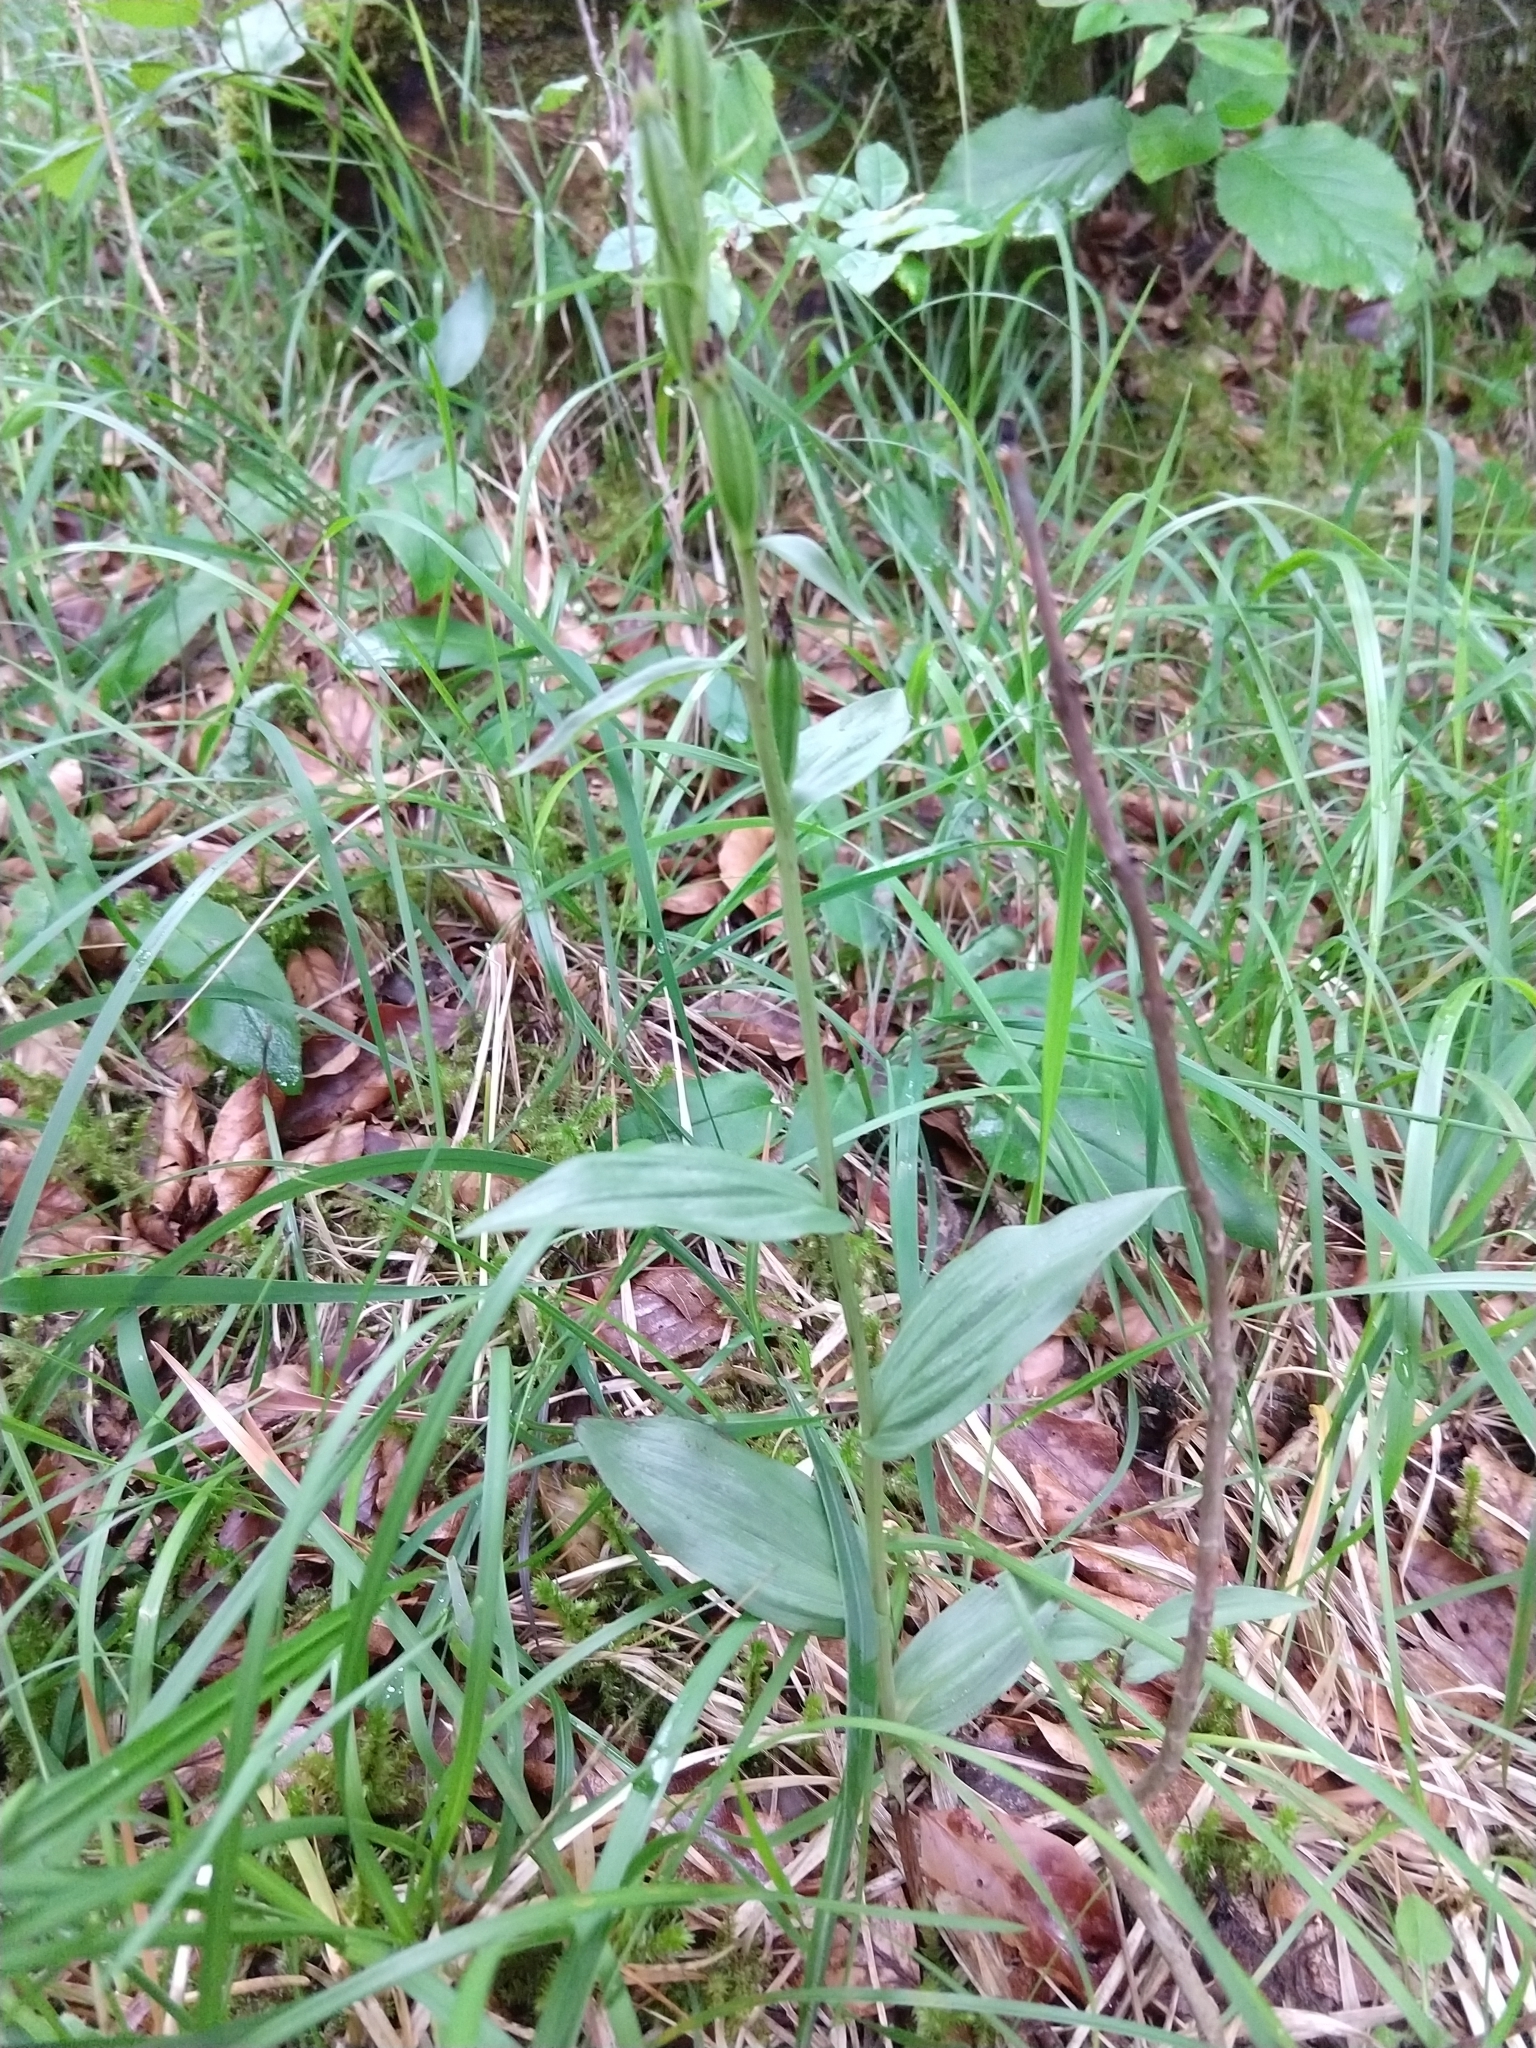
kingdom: Plantae
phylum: Tracheophyta
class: Liliopsida
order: Asparagales
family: Orchidaceae
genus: Cephalanthera
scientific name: Cephalanthera damasonium
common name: White helleborine
